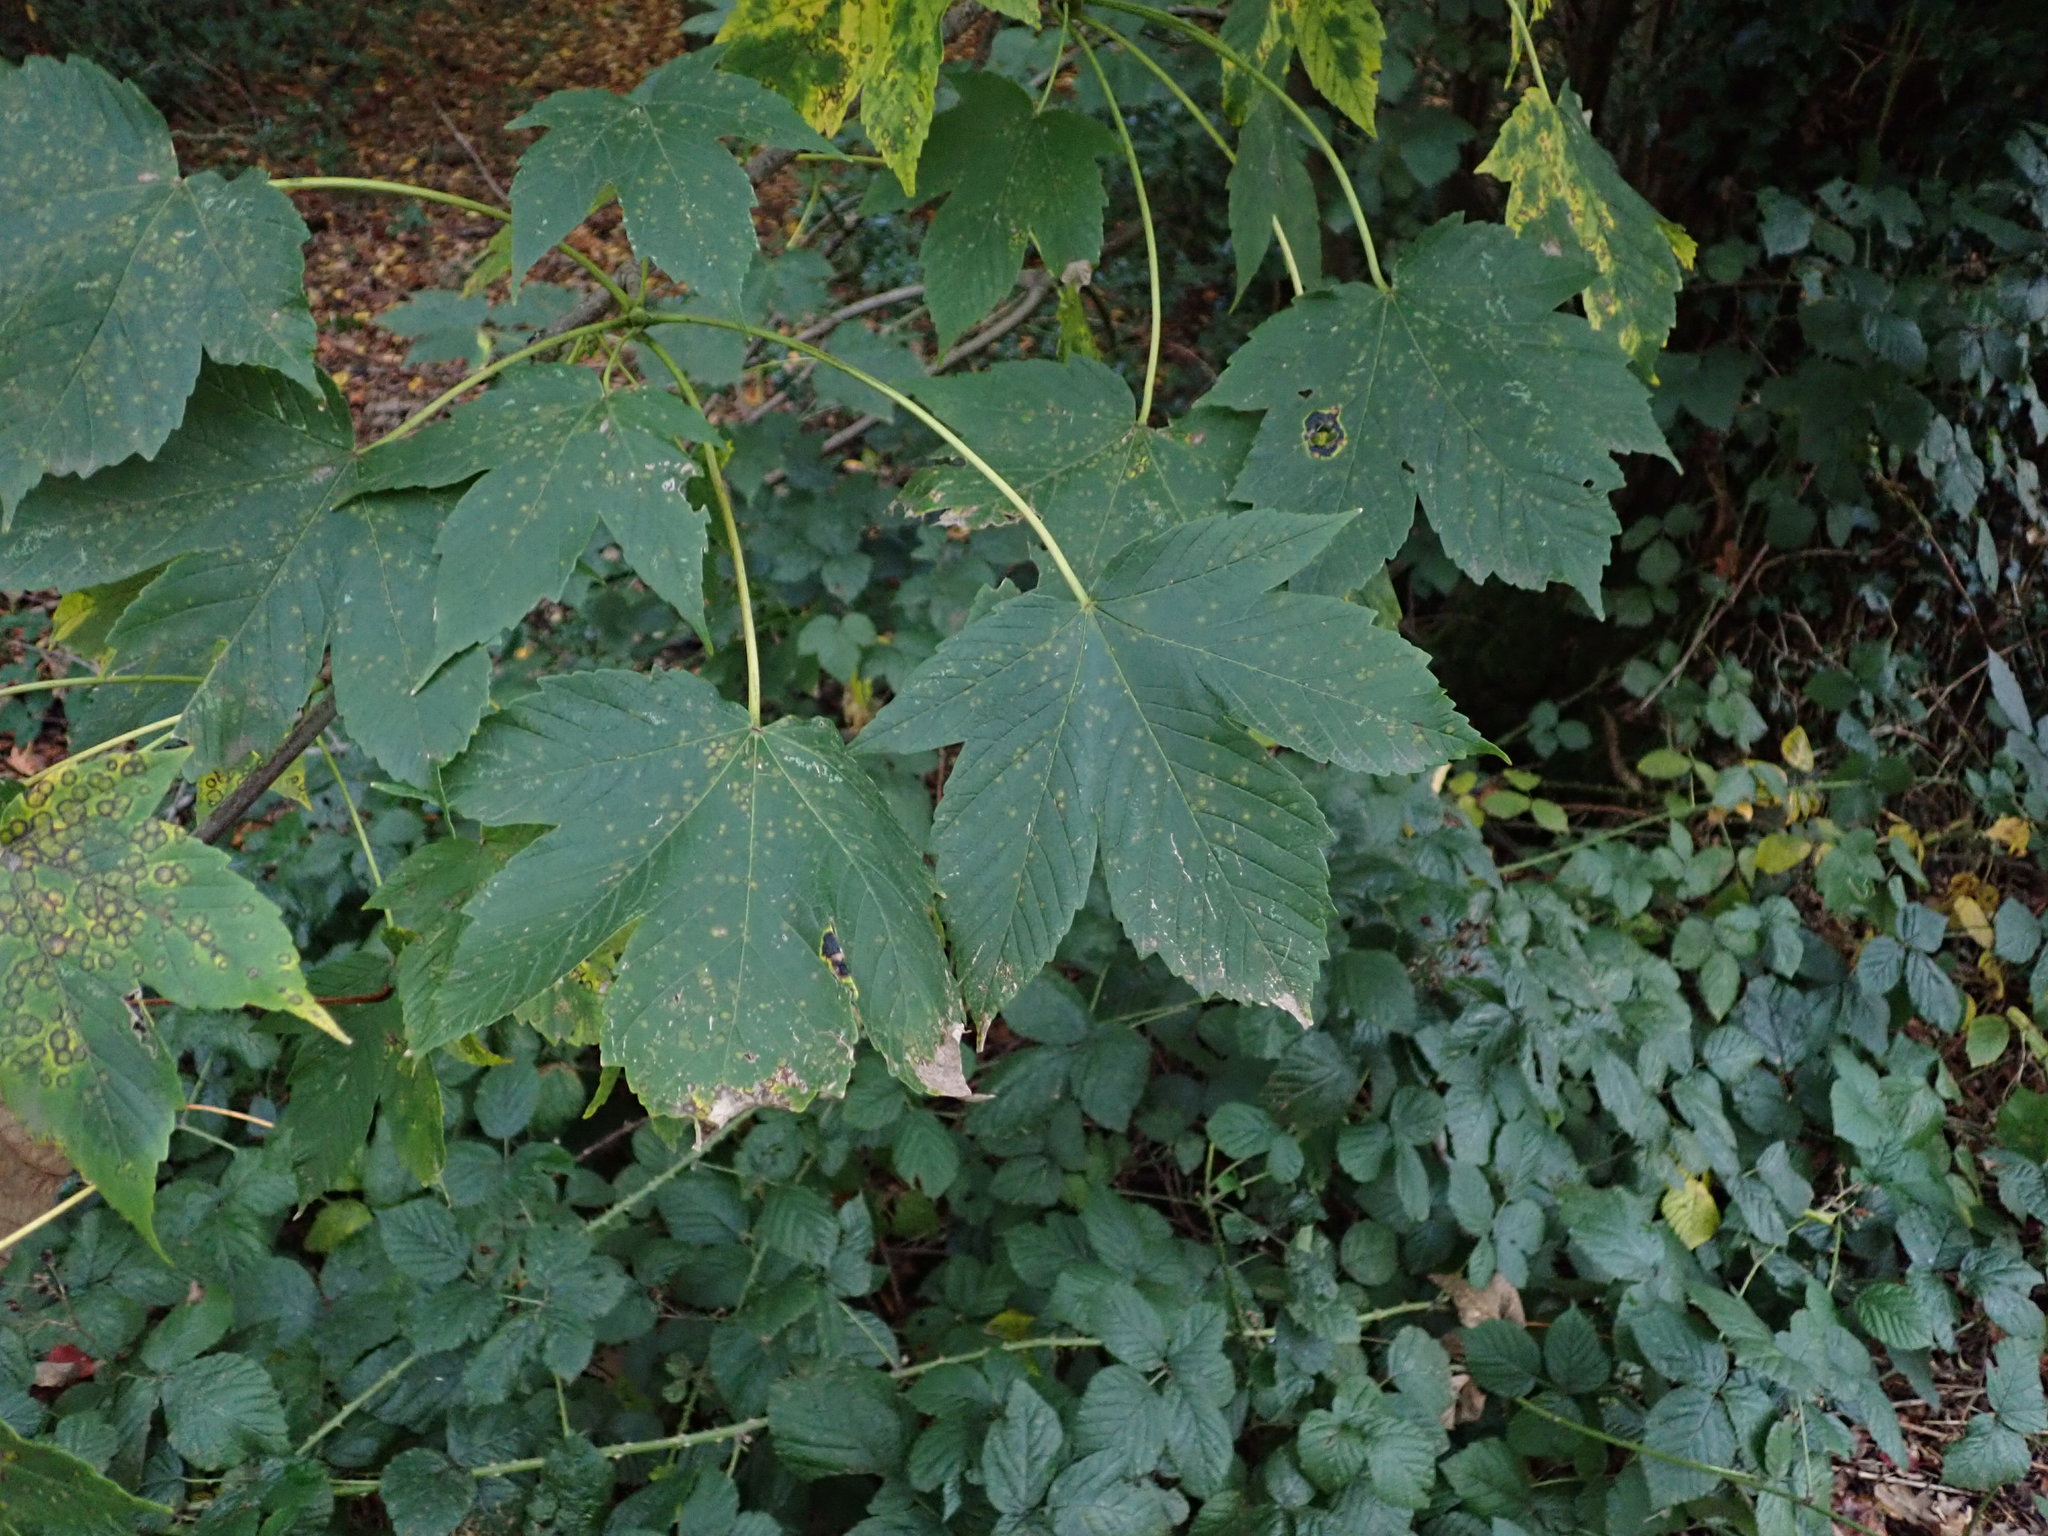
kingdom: Plantae
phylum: Tracheophyta
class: Magnoliopsida
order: Sapindales
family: Sapindaceae
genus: Acer
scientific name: Acer pseudoplatanus
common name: Sycamore
